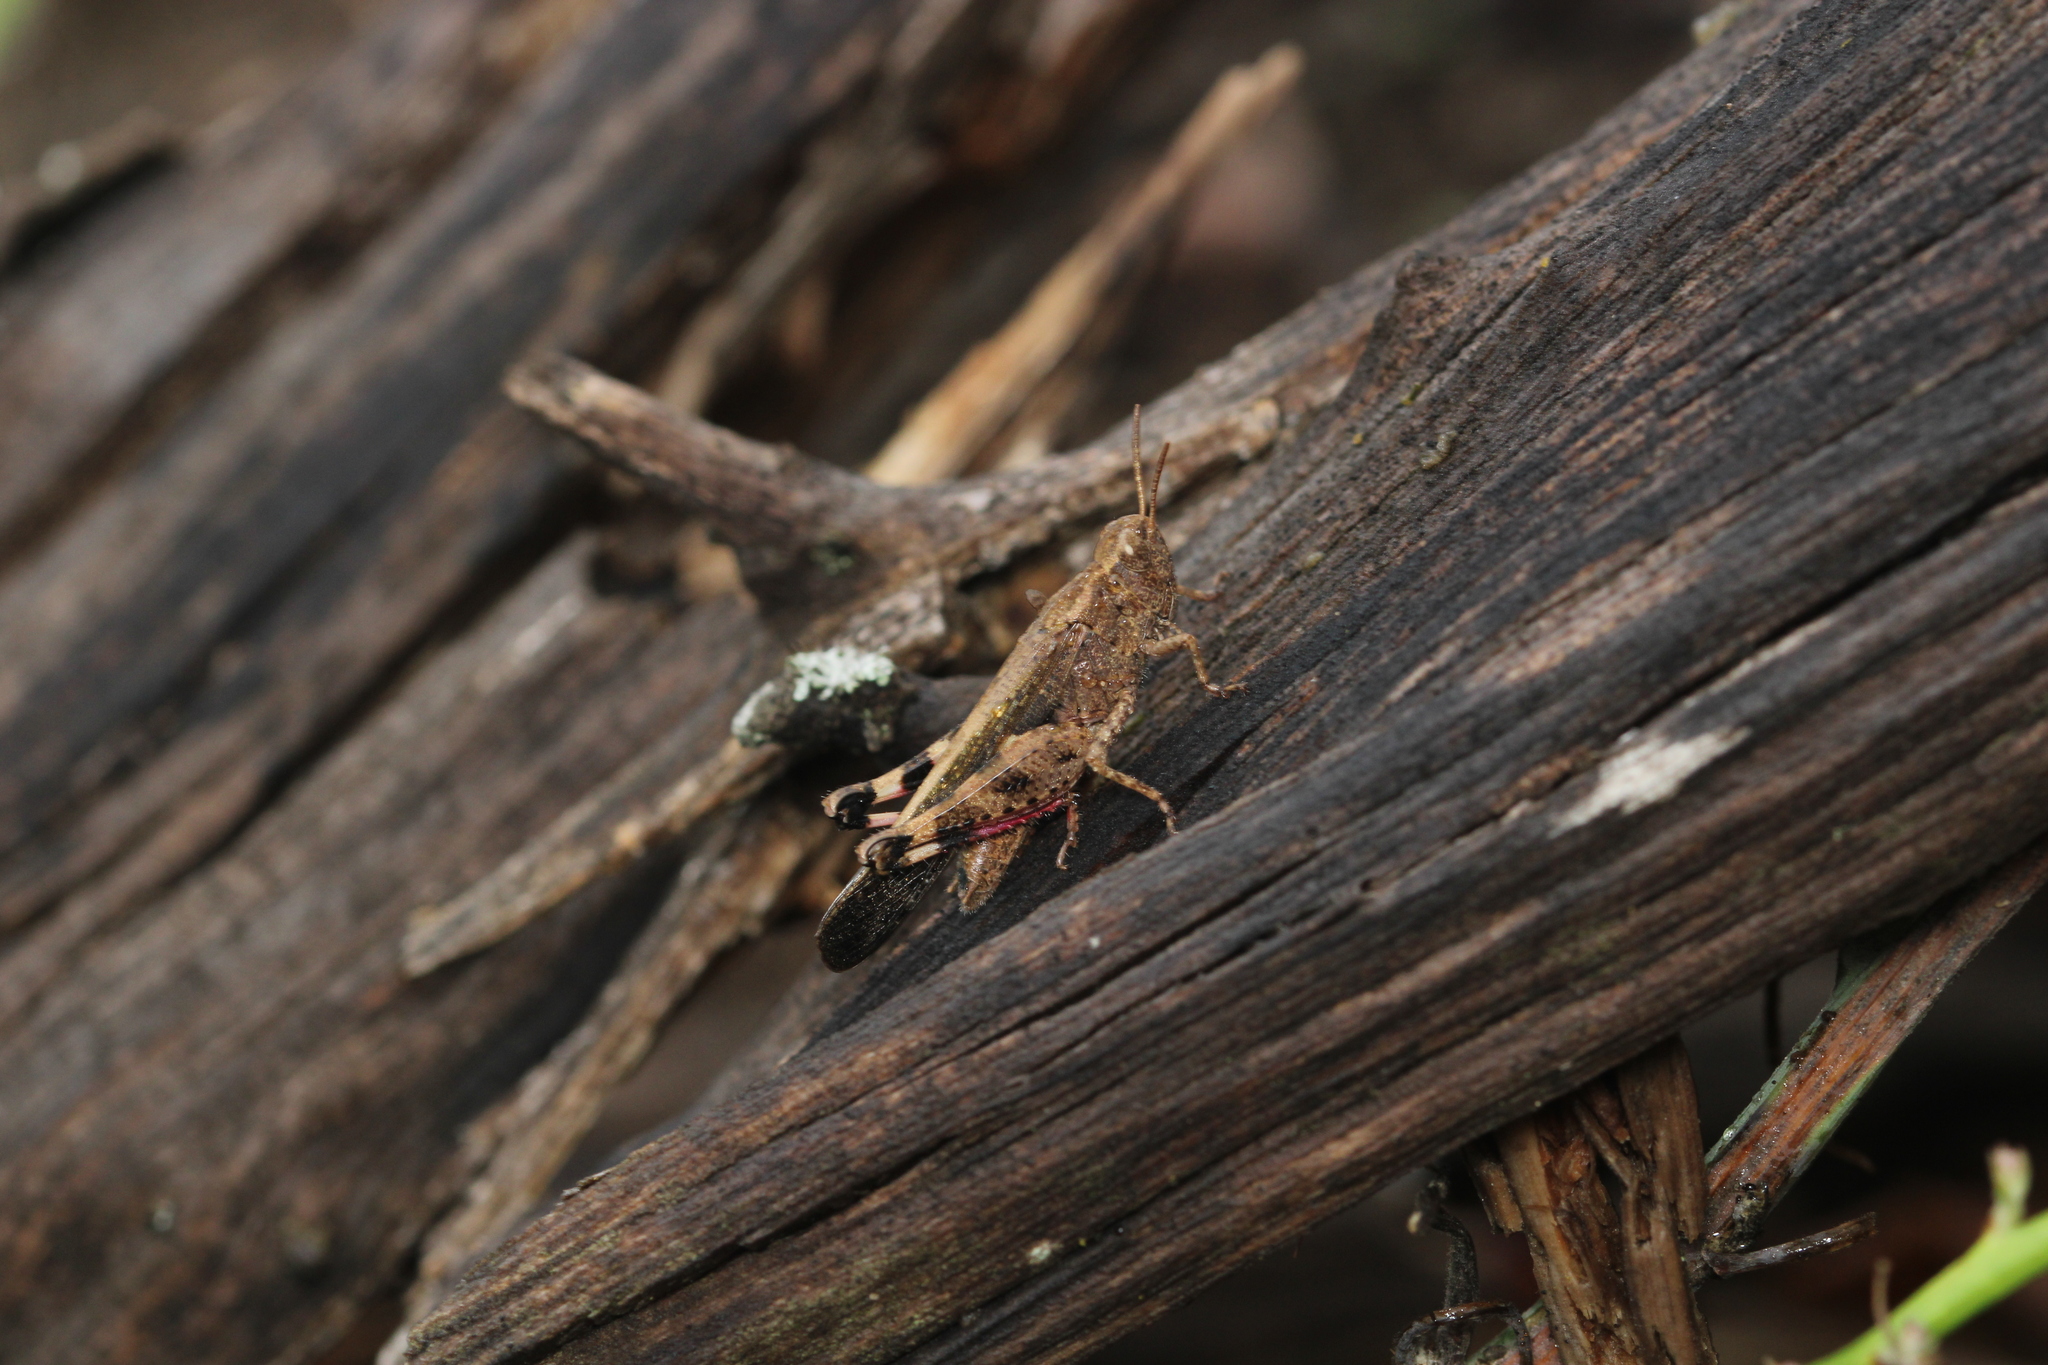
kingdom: Animalia
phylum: Arthropoda
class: Insecta
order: Orthoptera
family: Acrididae
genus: Aiolopus
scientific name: Aiolopus strepens
